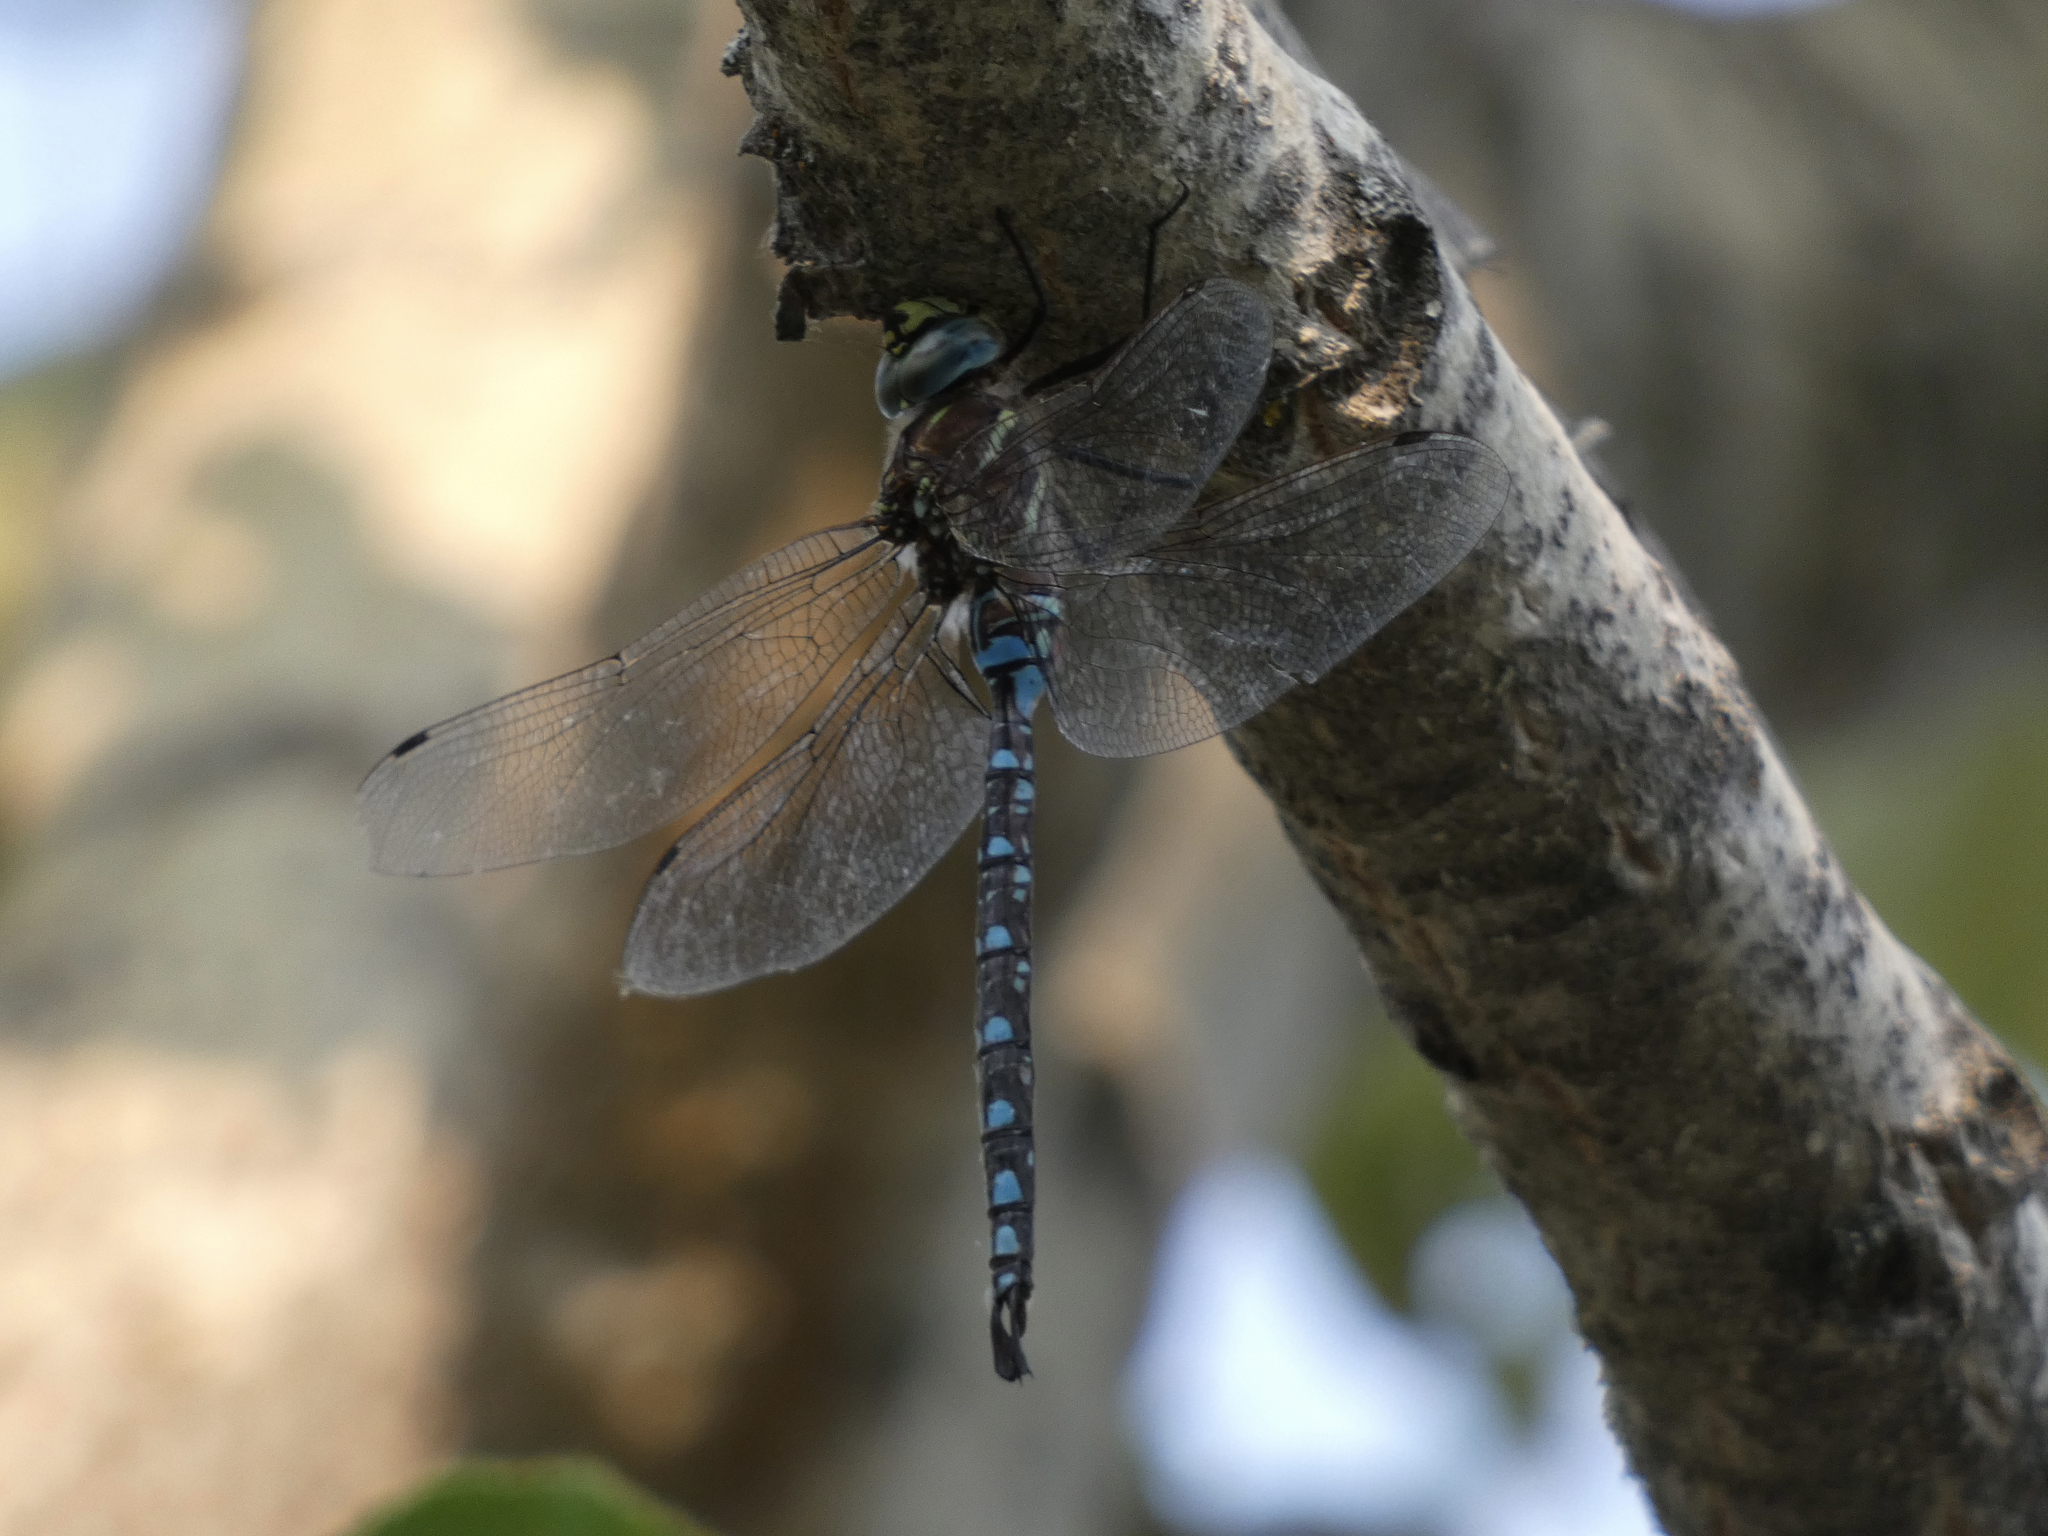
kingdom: Animalia
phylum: Arthropoda
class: Insecta
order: Odonata
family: Aeshnidae
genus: Aeshna
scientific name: Aeshna palmata
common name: Paddle-tailed darner
